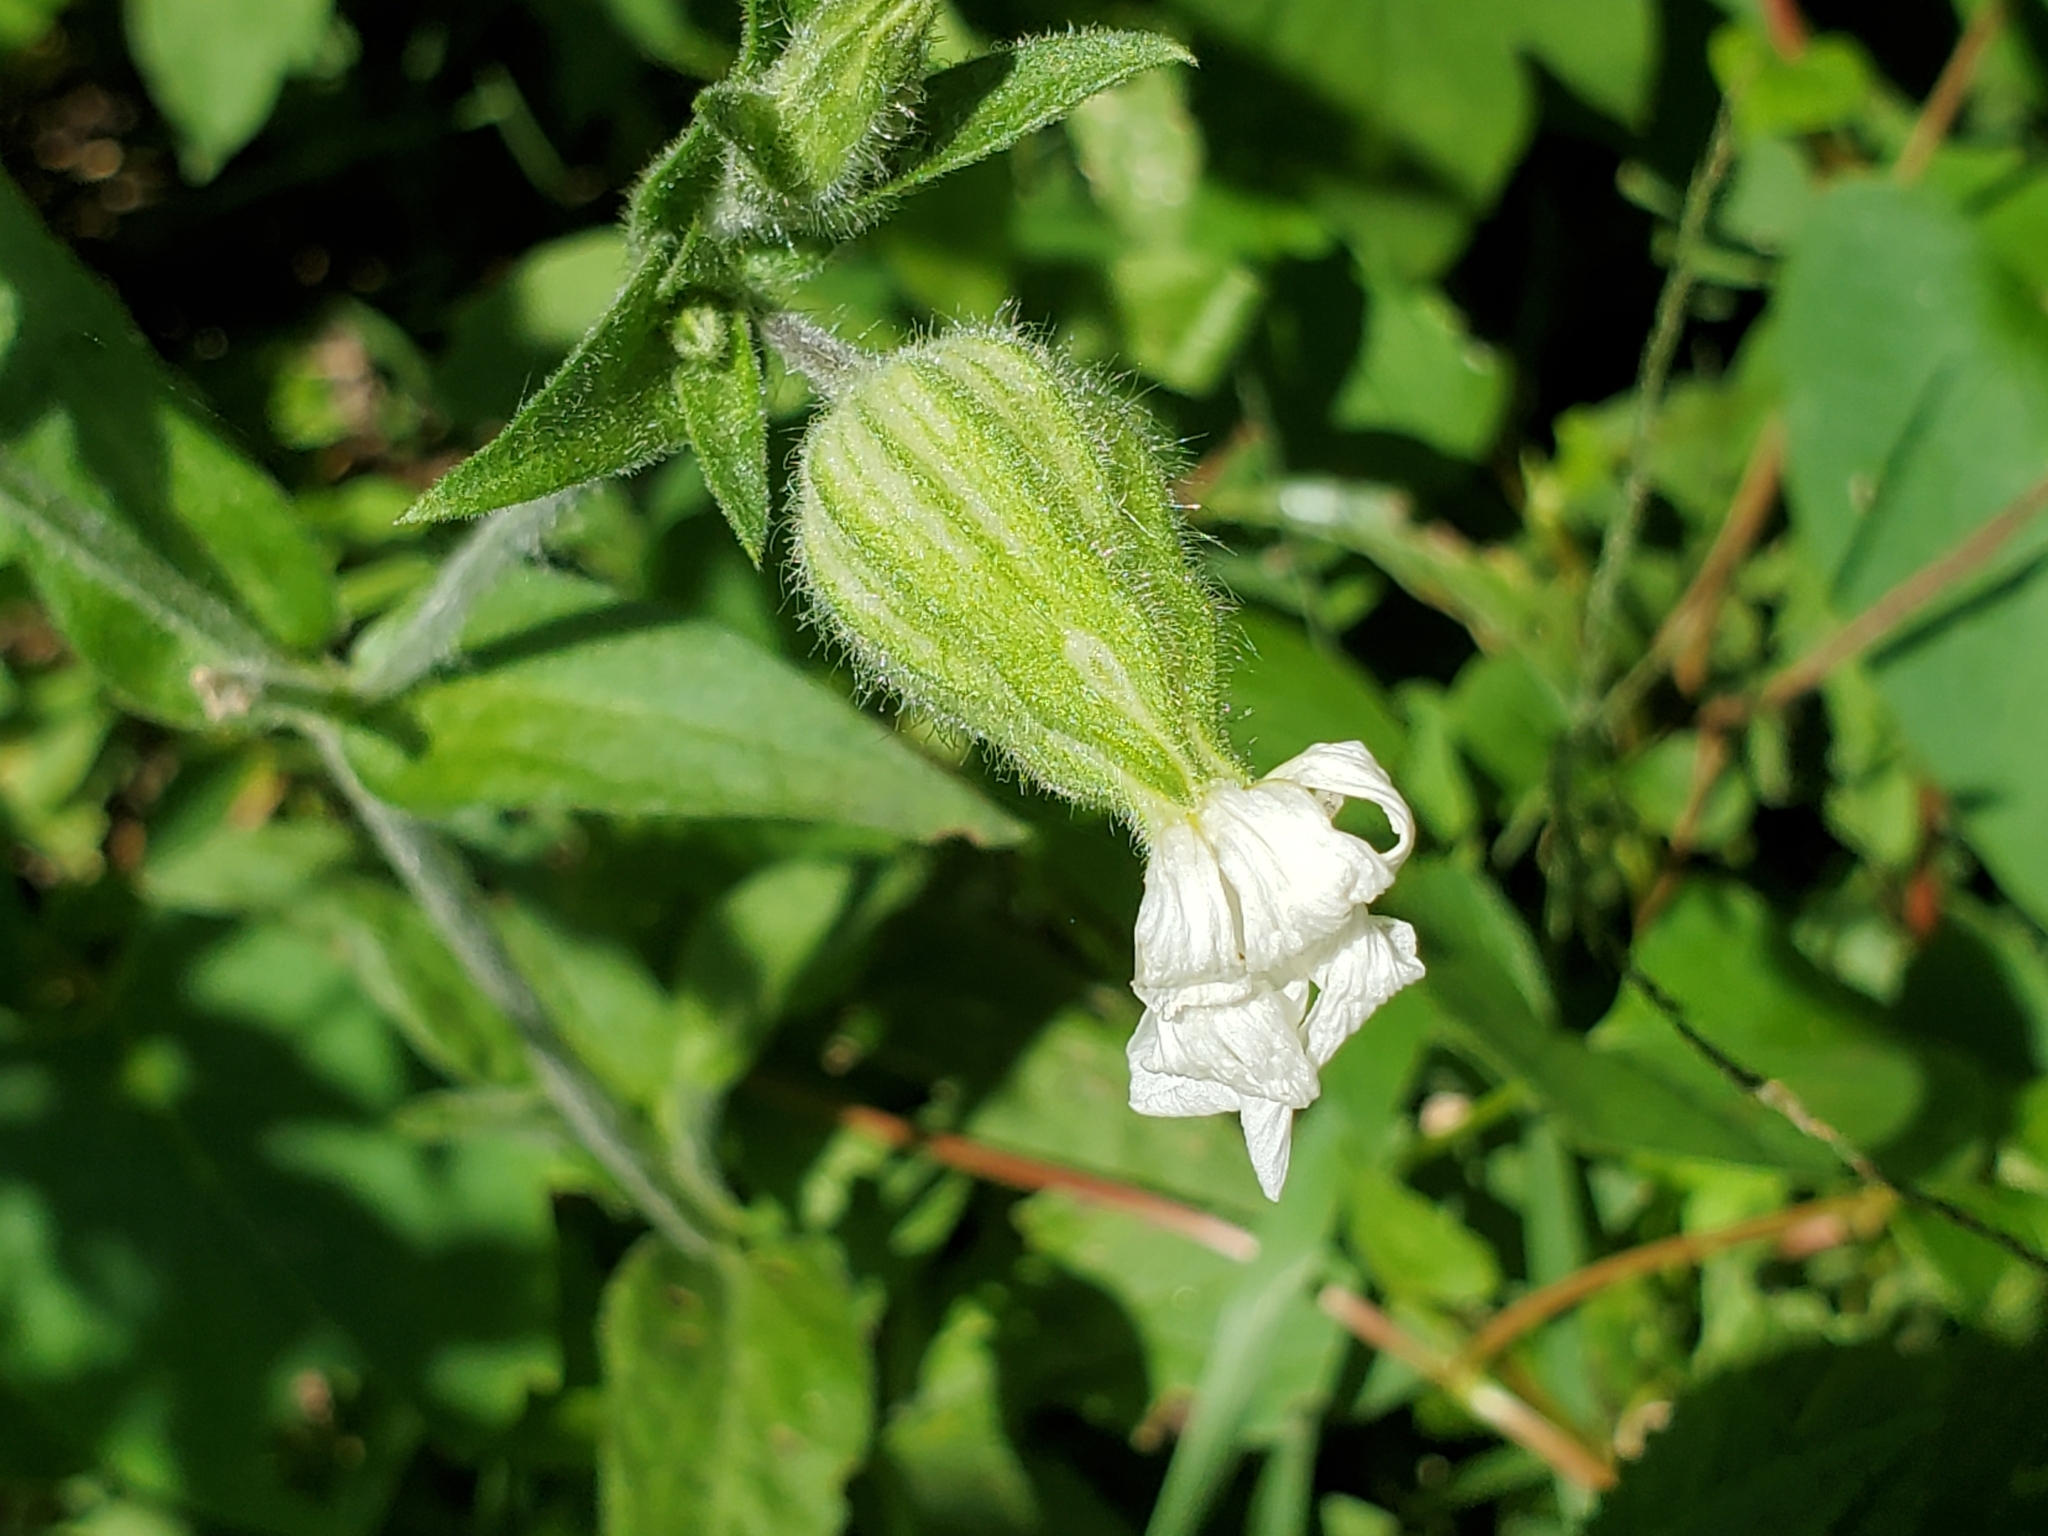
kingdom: Plantae
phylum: Tracheophyta
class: Magnoliopsida
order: Caryophyllales
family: Caryophyllaceae
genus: Silene
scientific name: Silene latifolia
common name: White campion
